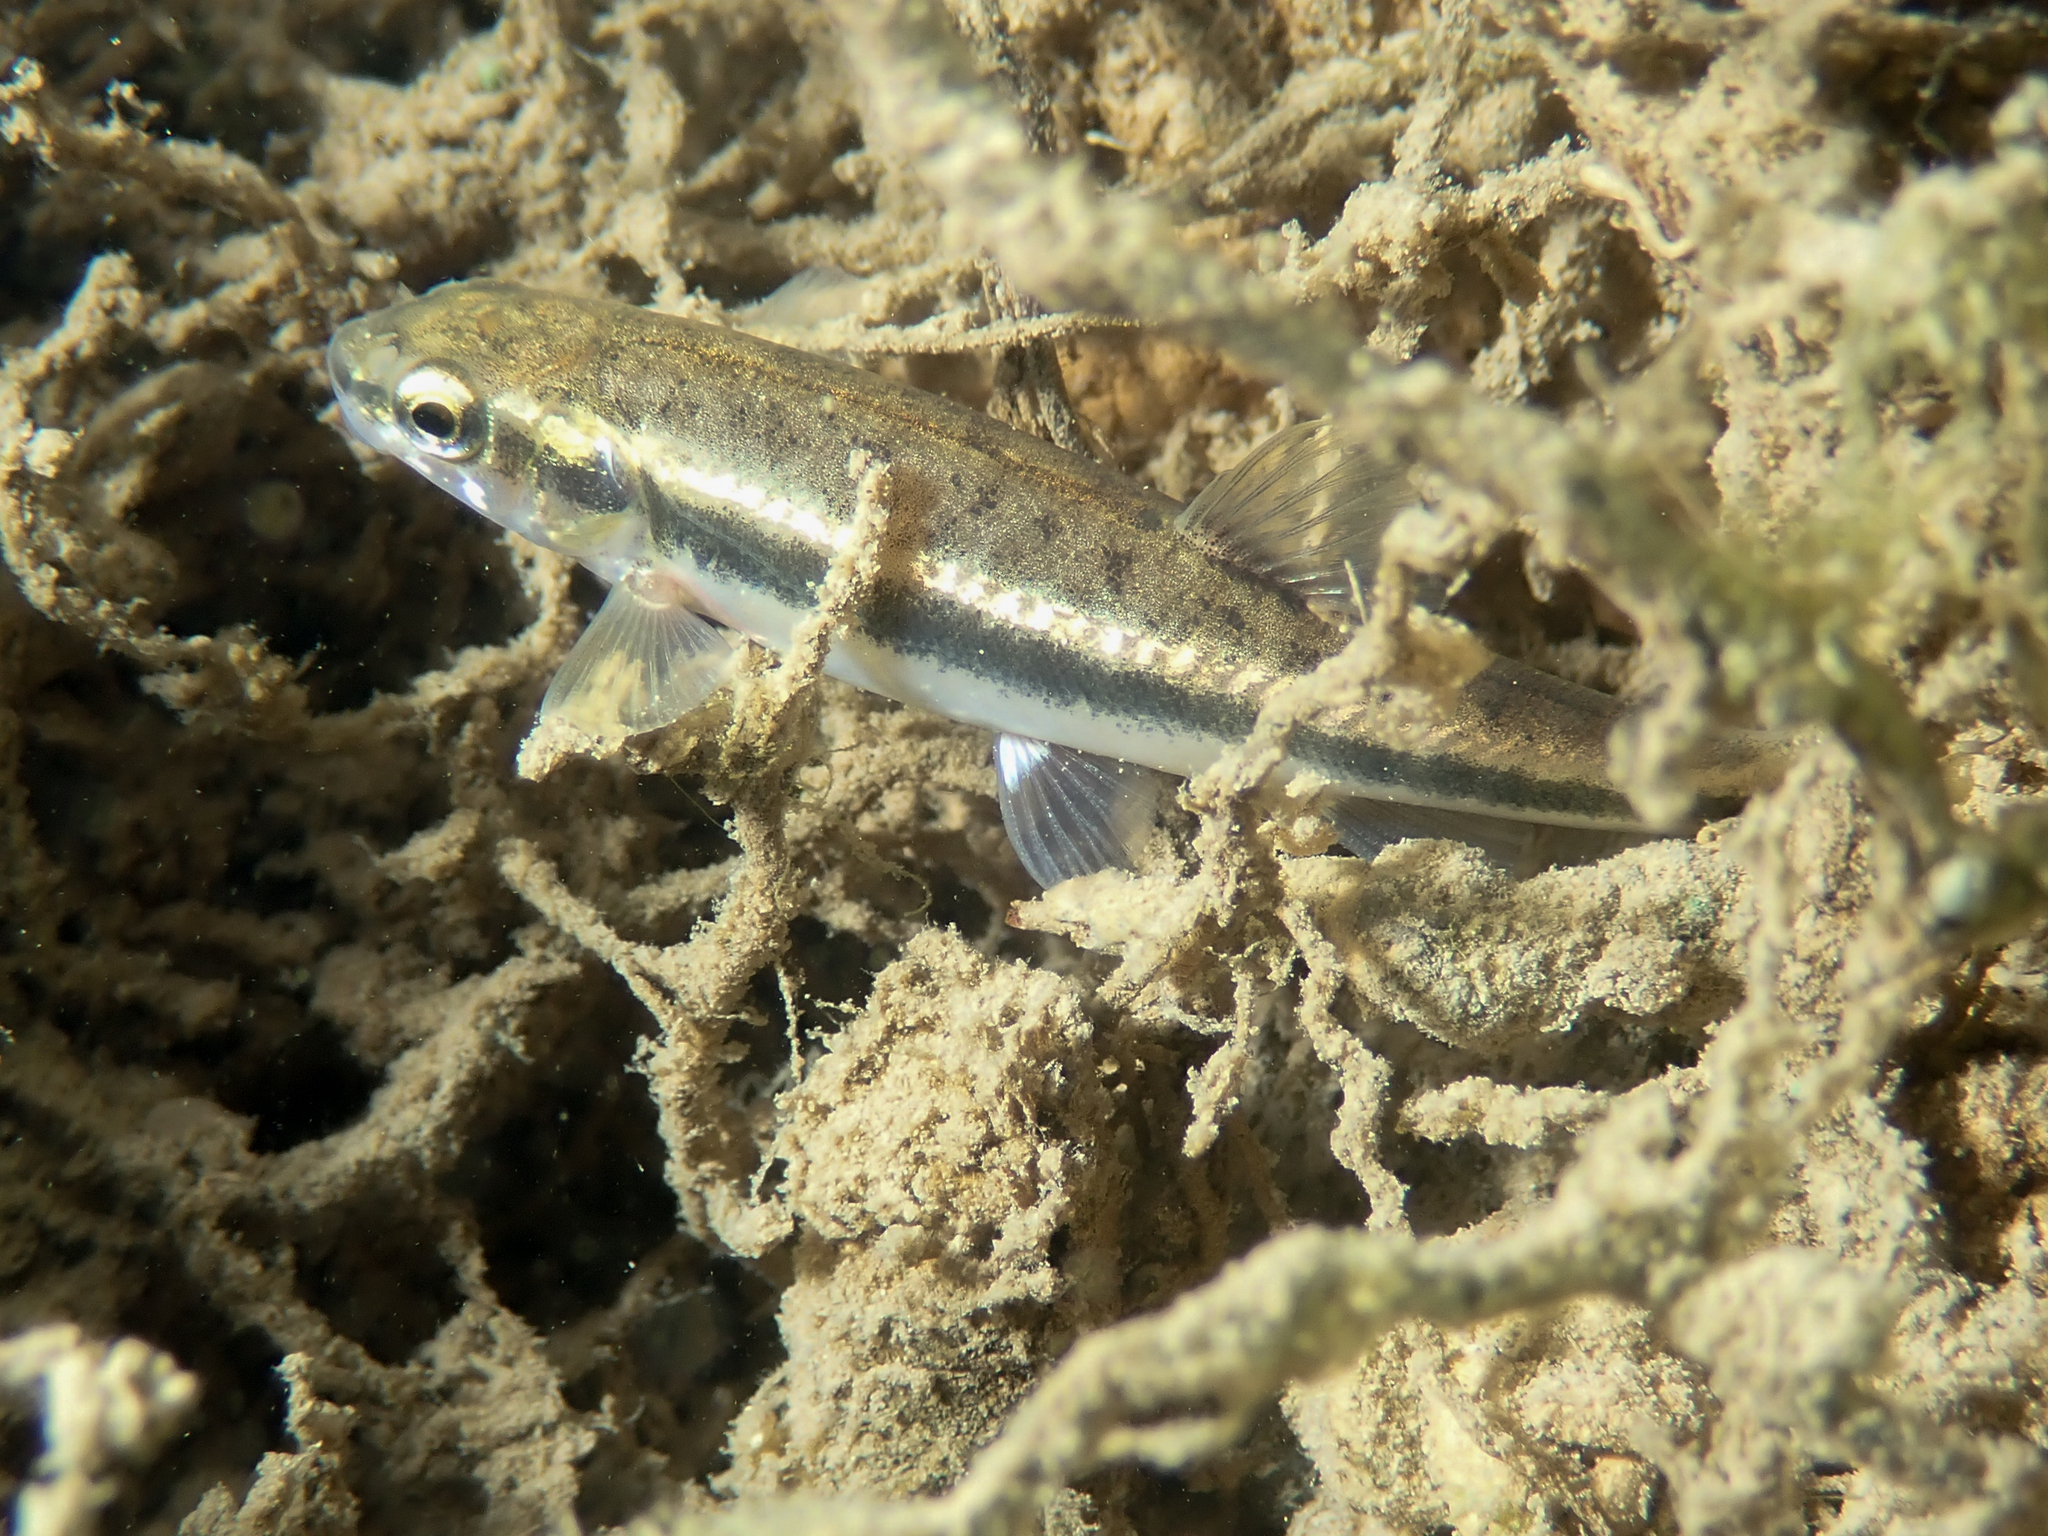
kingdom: Animalia
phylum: Chordata
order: Cypriniformes
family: Cyprinidae
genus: Phoxinus
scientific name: Phoxinus septimaniae
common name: Languedoc minnow
